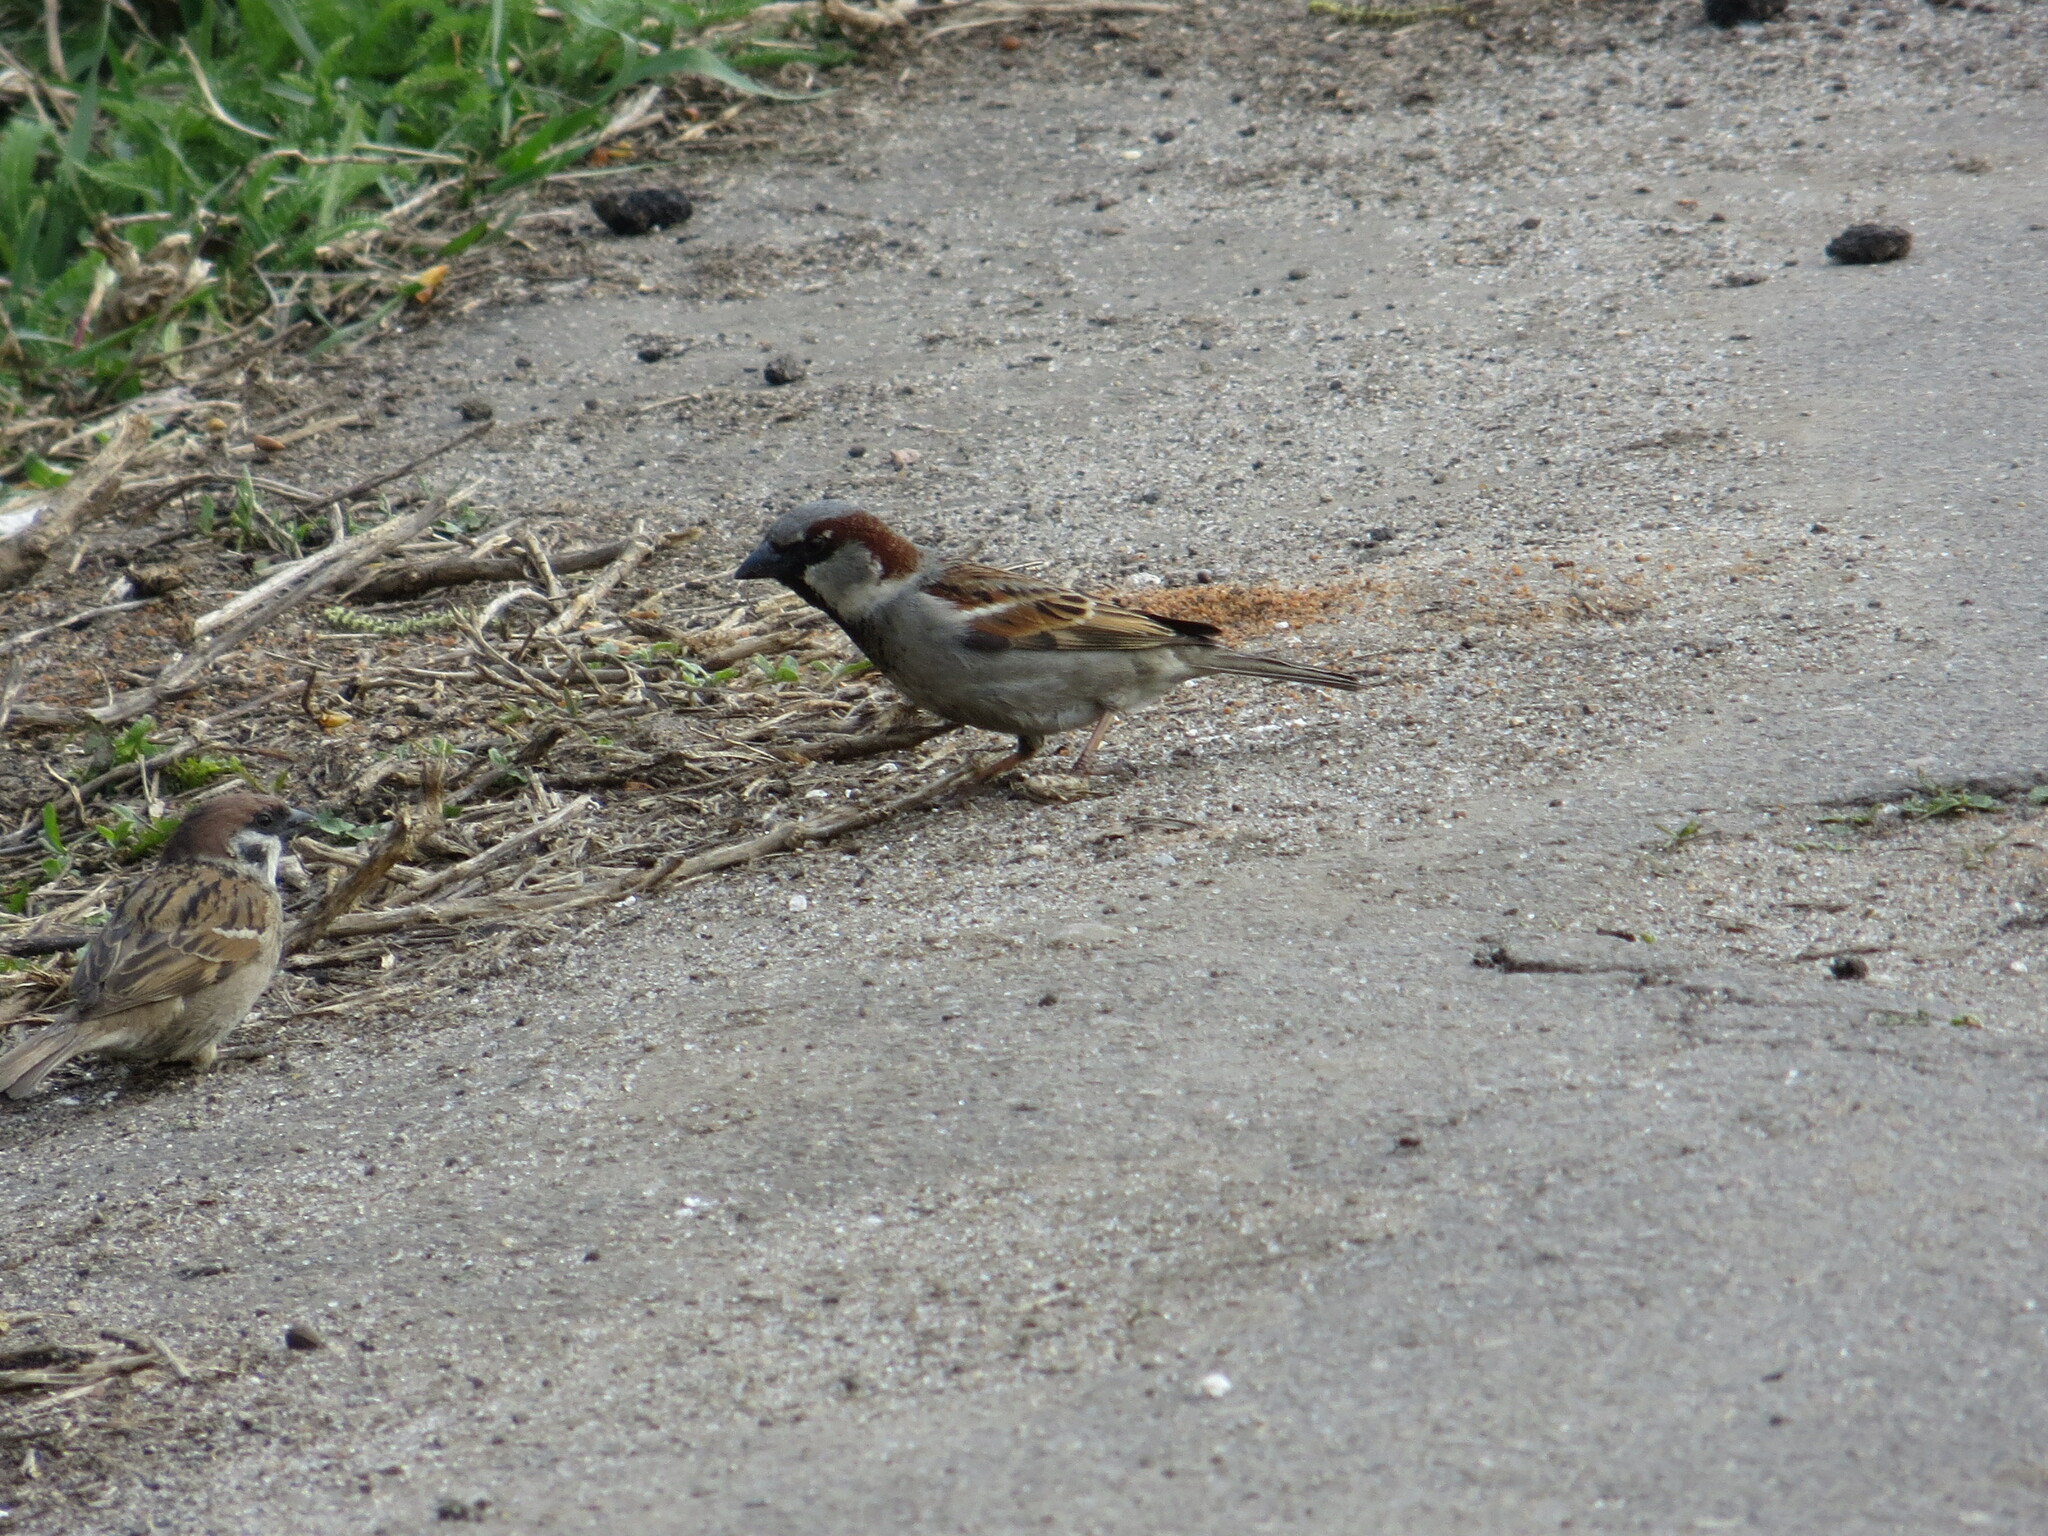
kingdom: Animalia
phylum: Chordata
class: Aves
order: Passeriformes
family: Passeridae
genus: Passer
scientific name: Passer domesticus
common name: House sparrow
